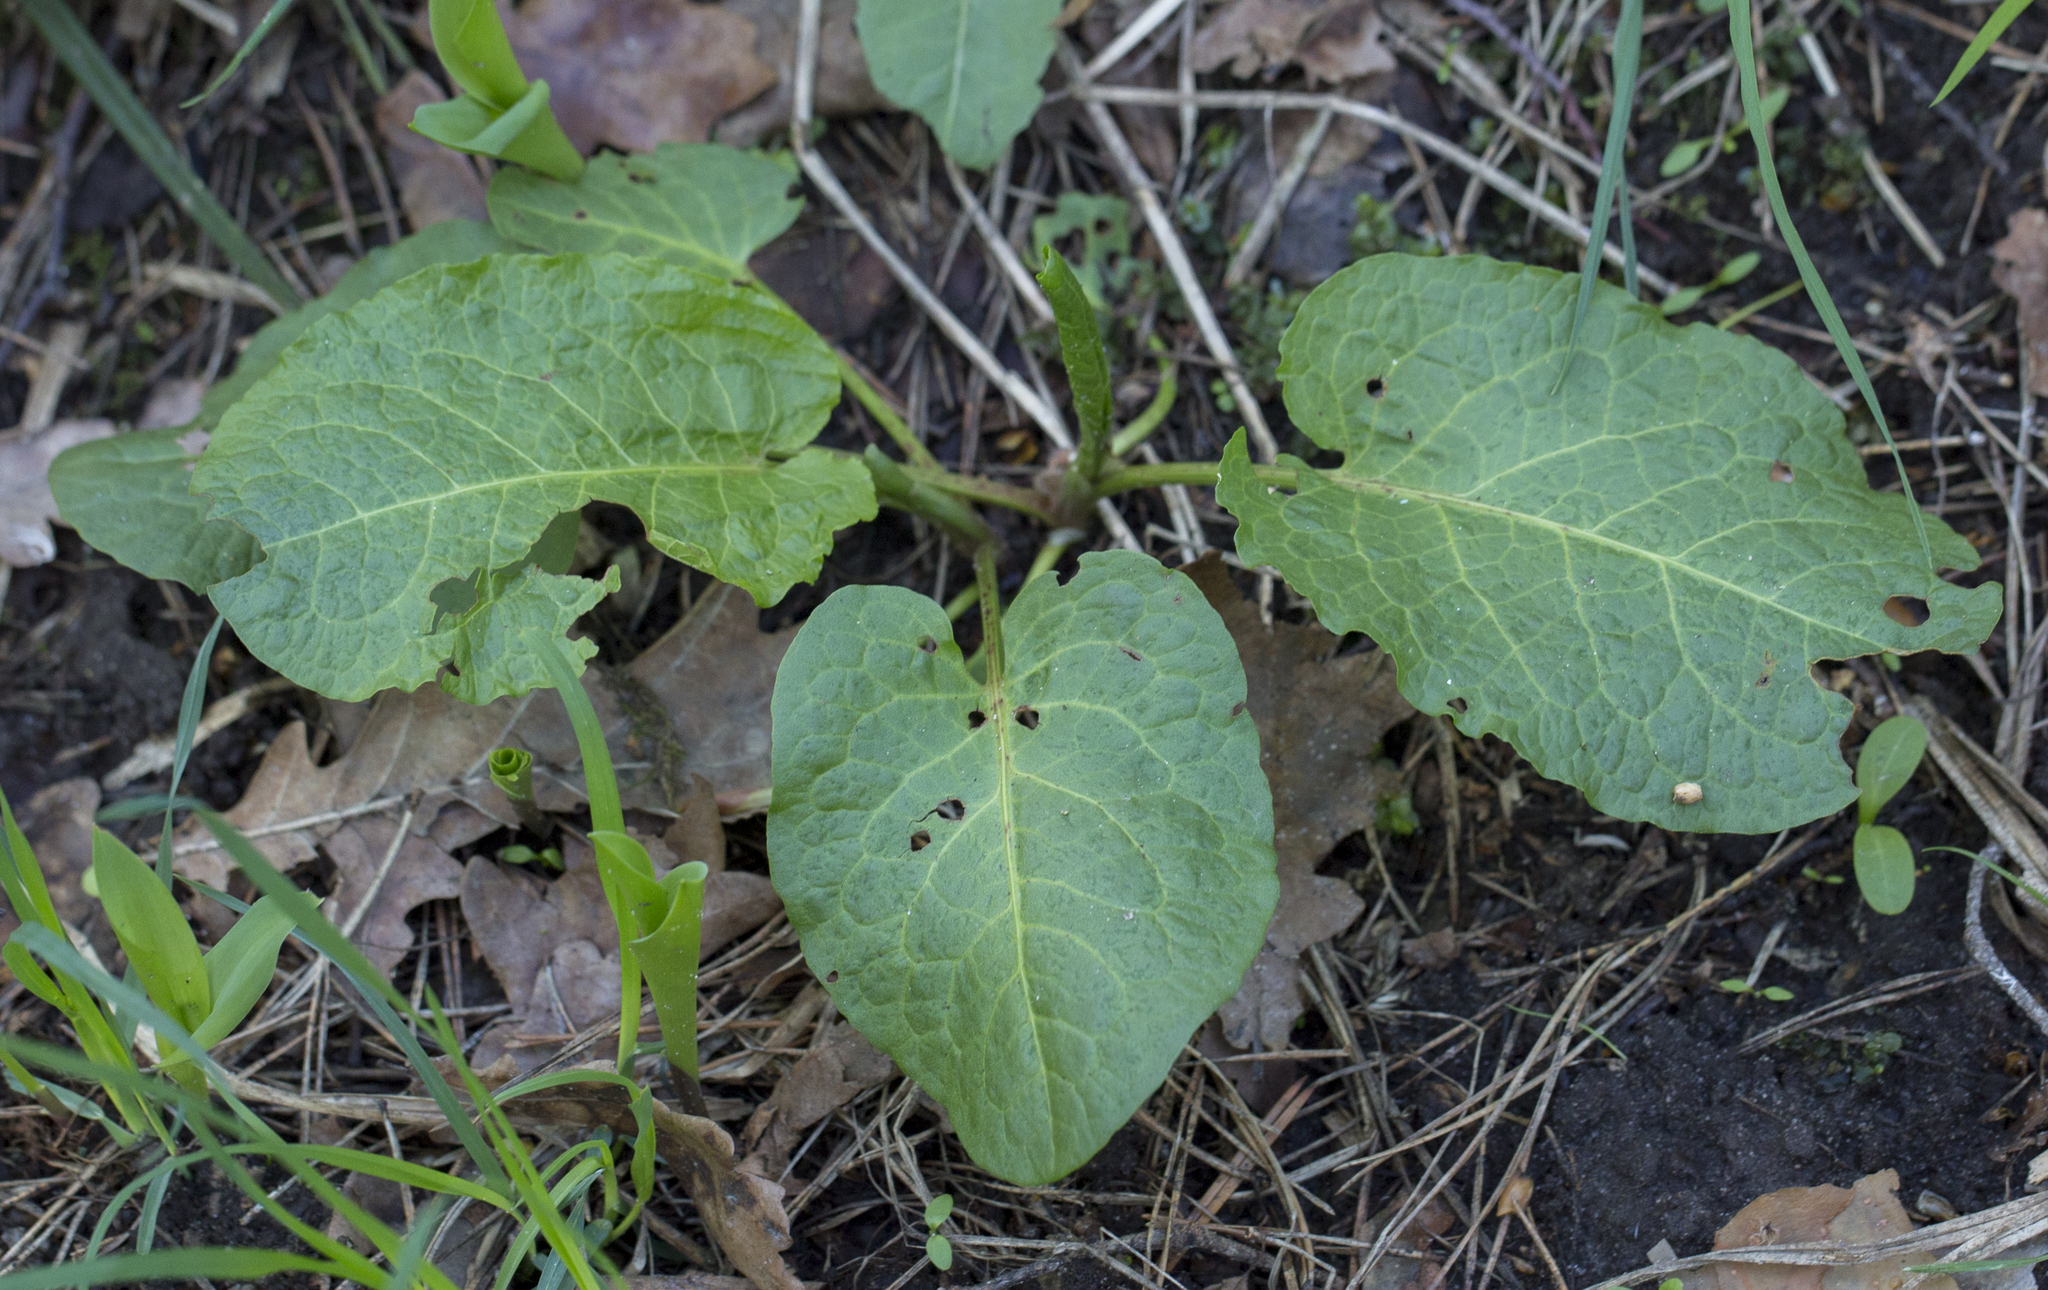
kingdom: Plantae
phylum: Tracheophyta
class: Magnoliopsida
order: Caryophyllales
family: Polygonaceae
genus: Rumex
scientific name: Rumex obtusifolius
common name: Bitter dock
